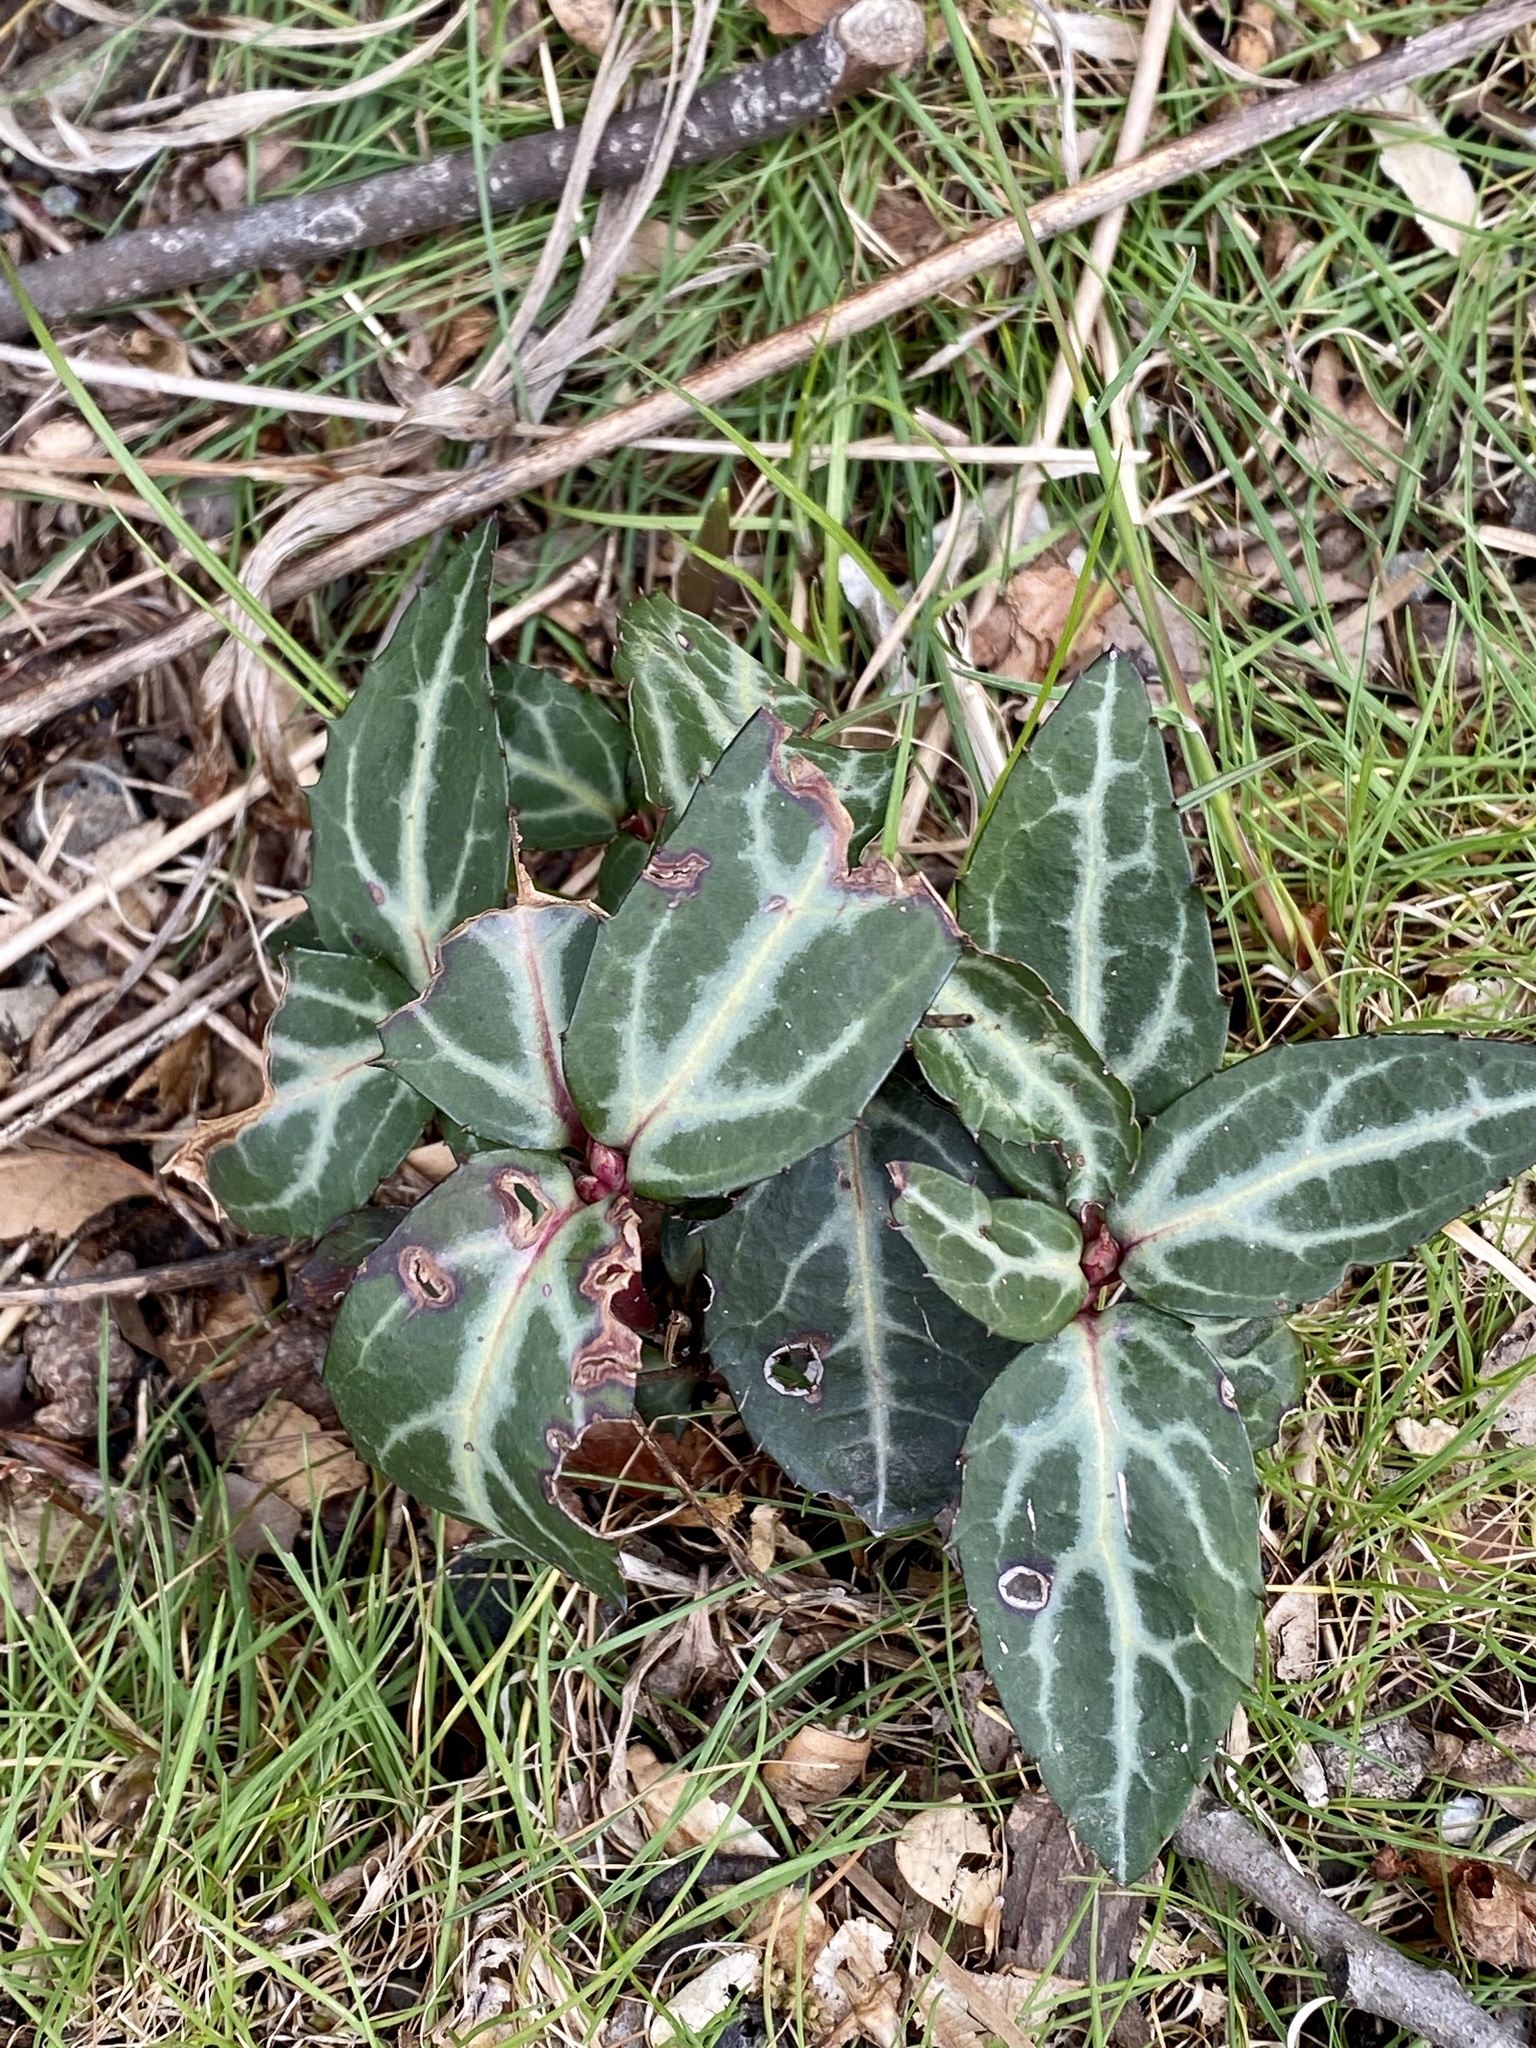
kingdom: Plantae
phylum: Tracheophyta
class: Magnoliopsida
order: Ericales
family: Ericaceae
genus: Chimaphila
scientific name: Chimaphila maculata
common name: Spotted pipsissewa
